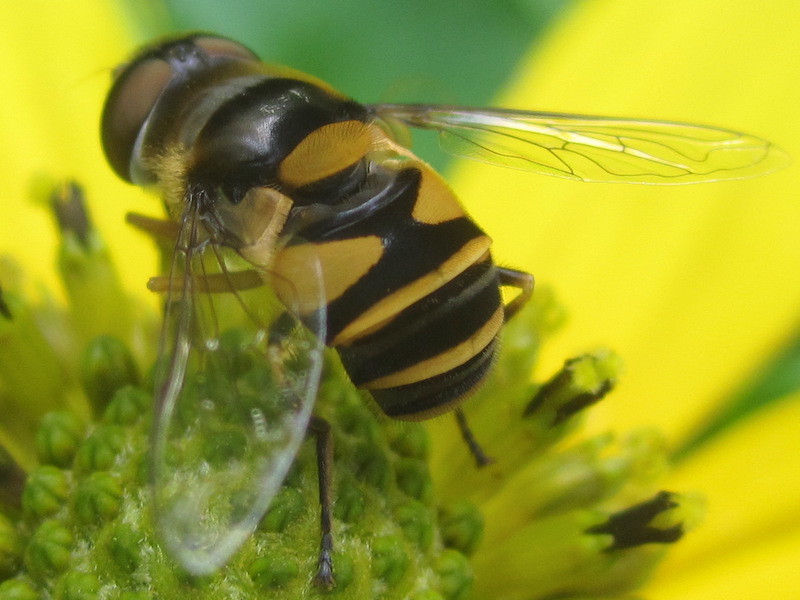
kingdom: Animalia
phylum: Arthropoda
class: Insecta
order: Diptera
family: Syrphidae
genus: Eristalis
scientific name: Eristalis transversa
